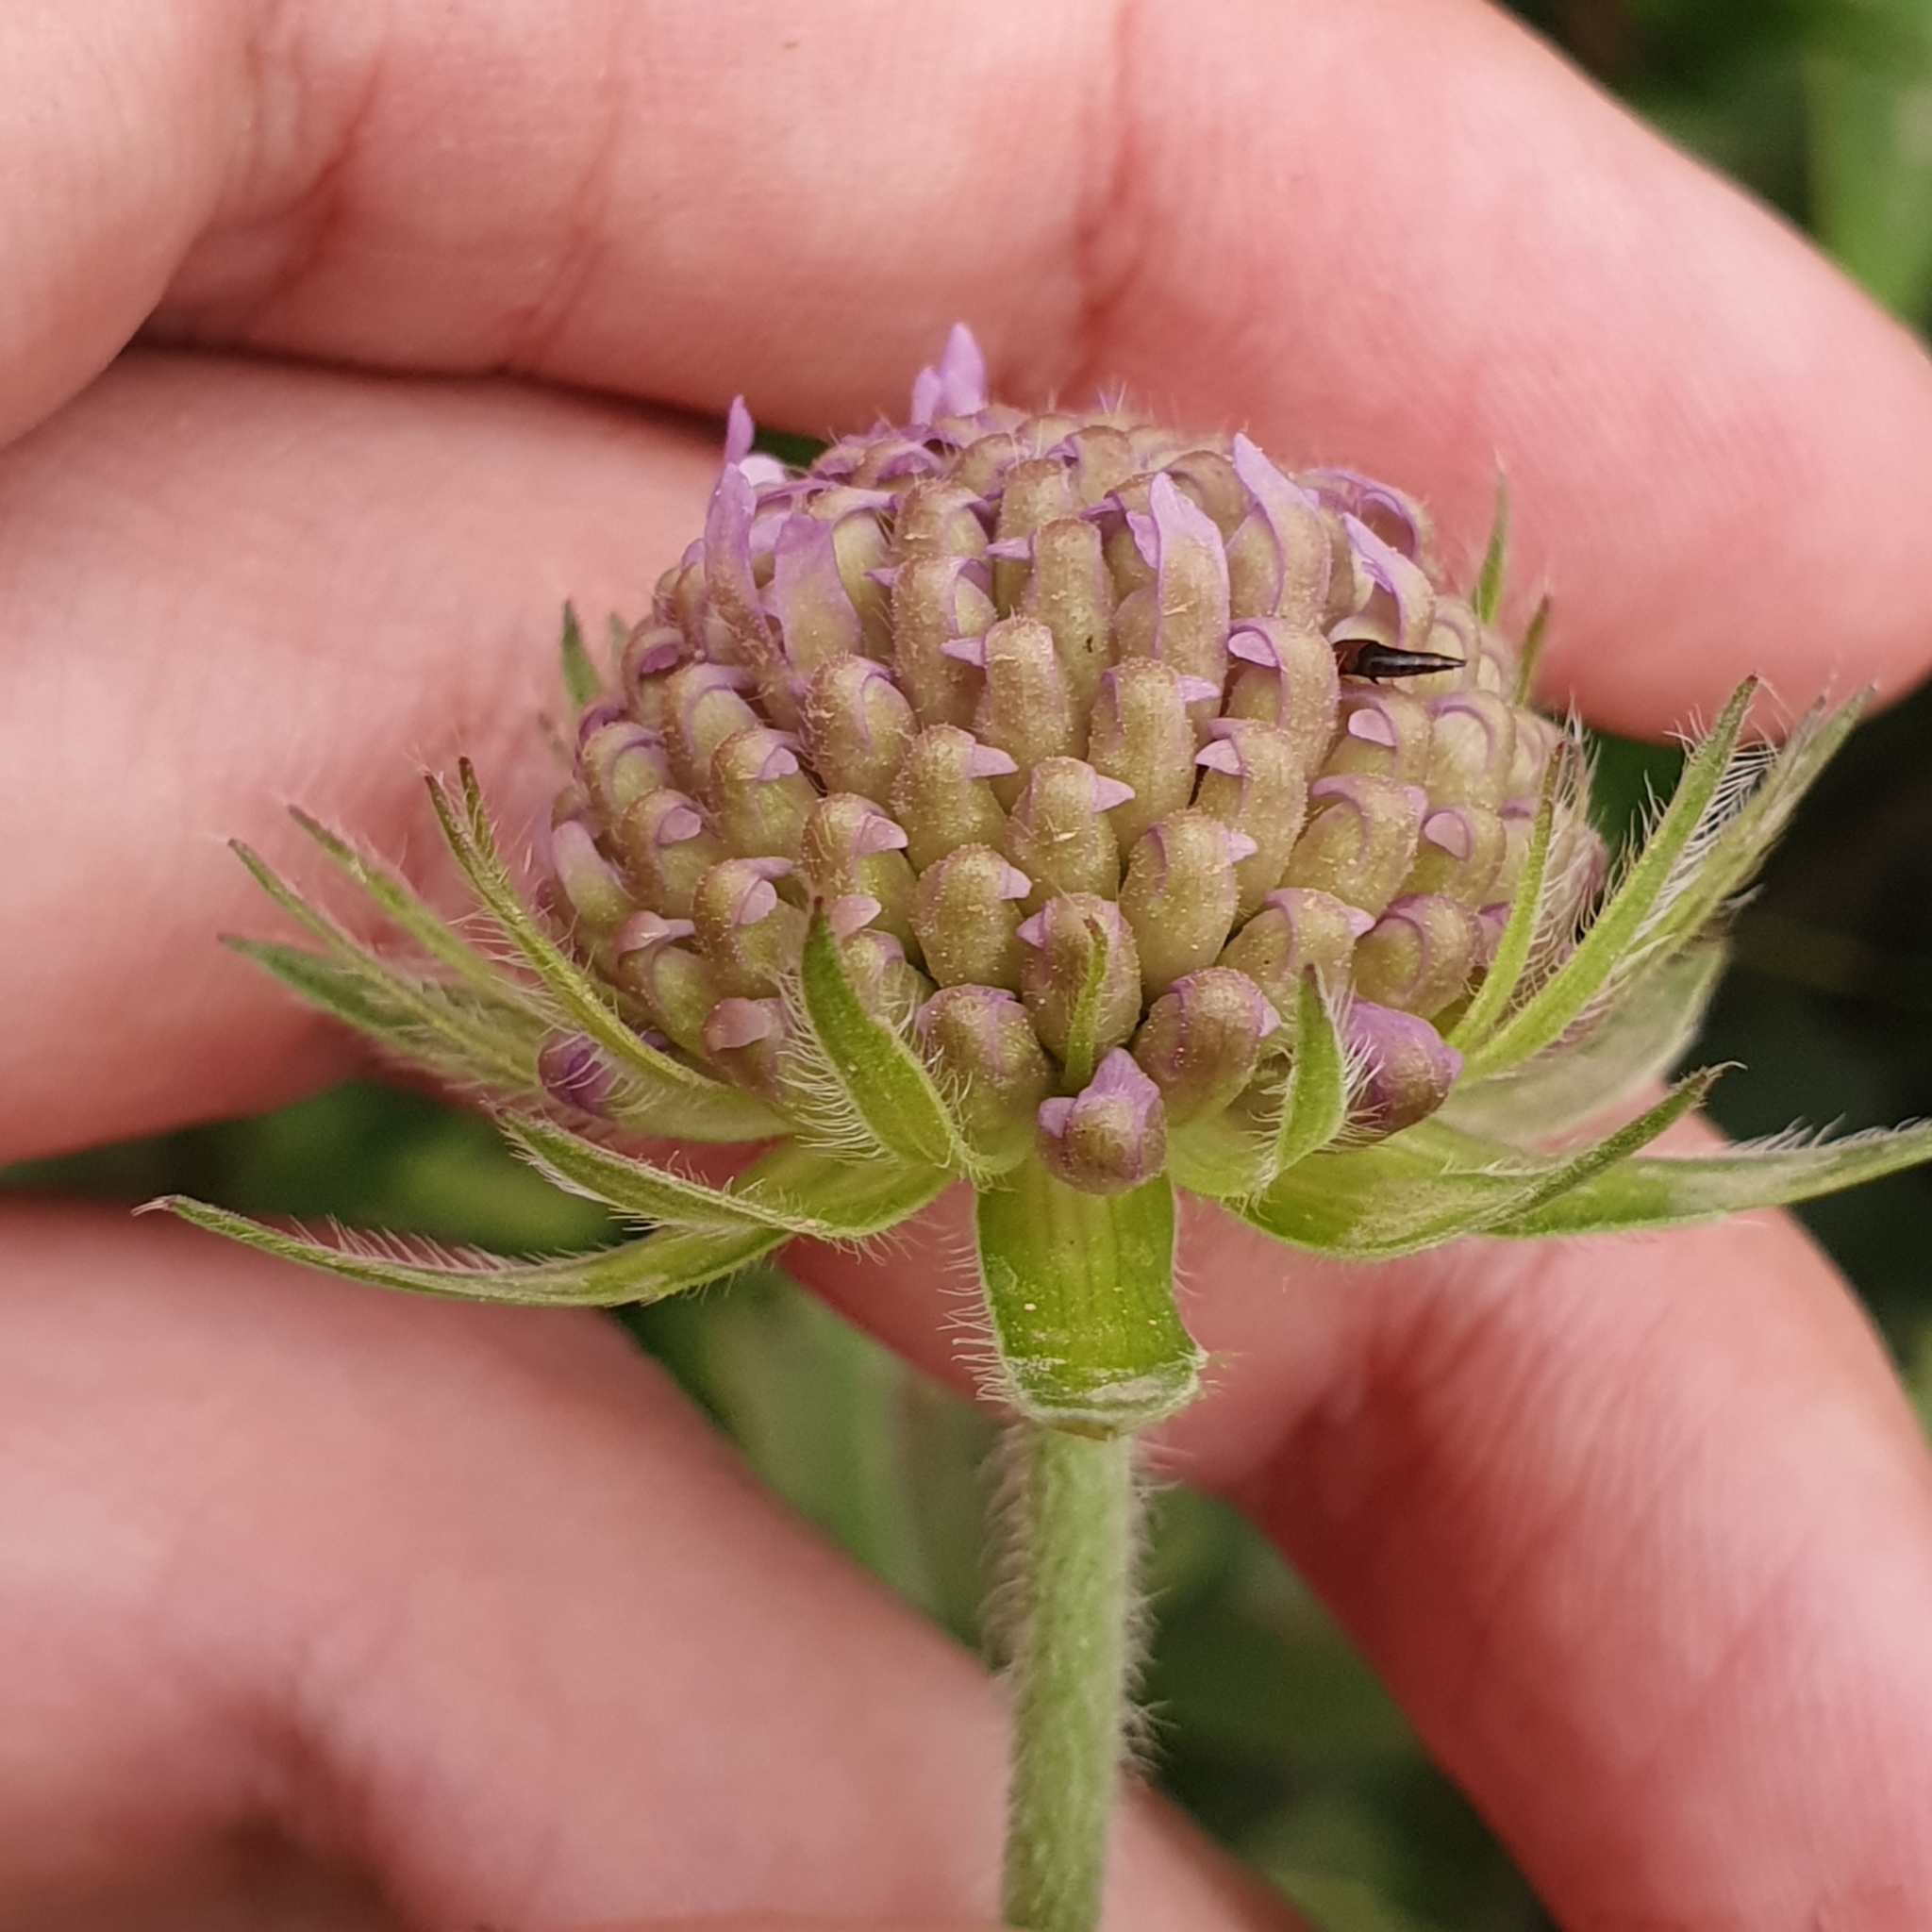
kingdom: Plantae
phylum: Tracheophyta
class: Magnoliopsida
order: Dipsacales
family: Caprifoliaceae
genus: Knautia
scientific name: Knautia mauritanica
